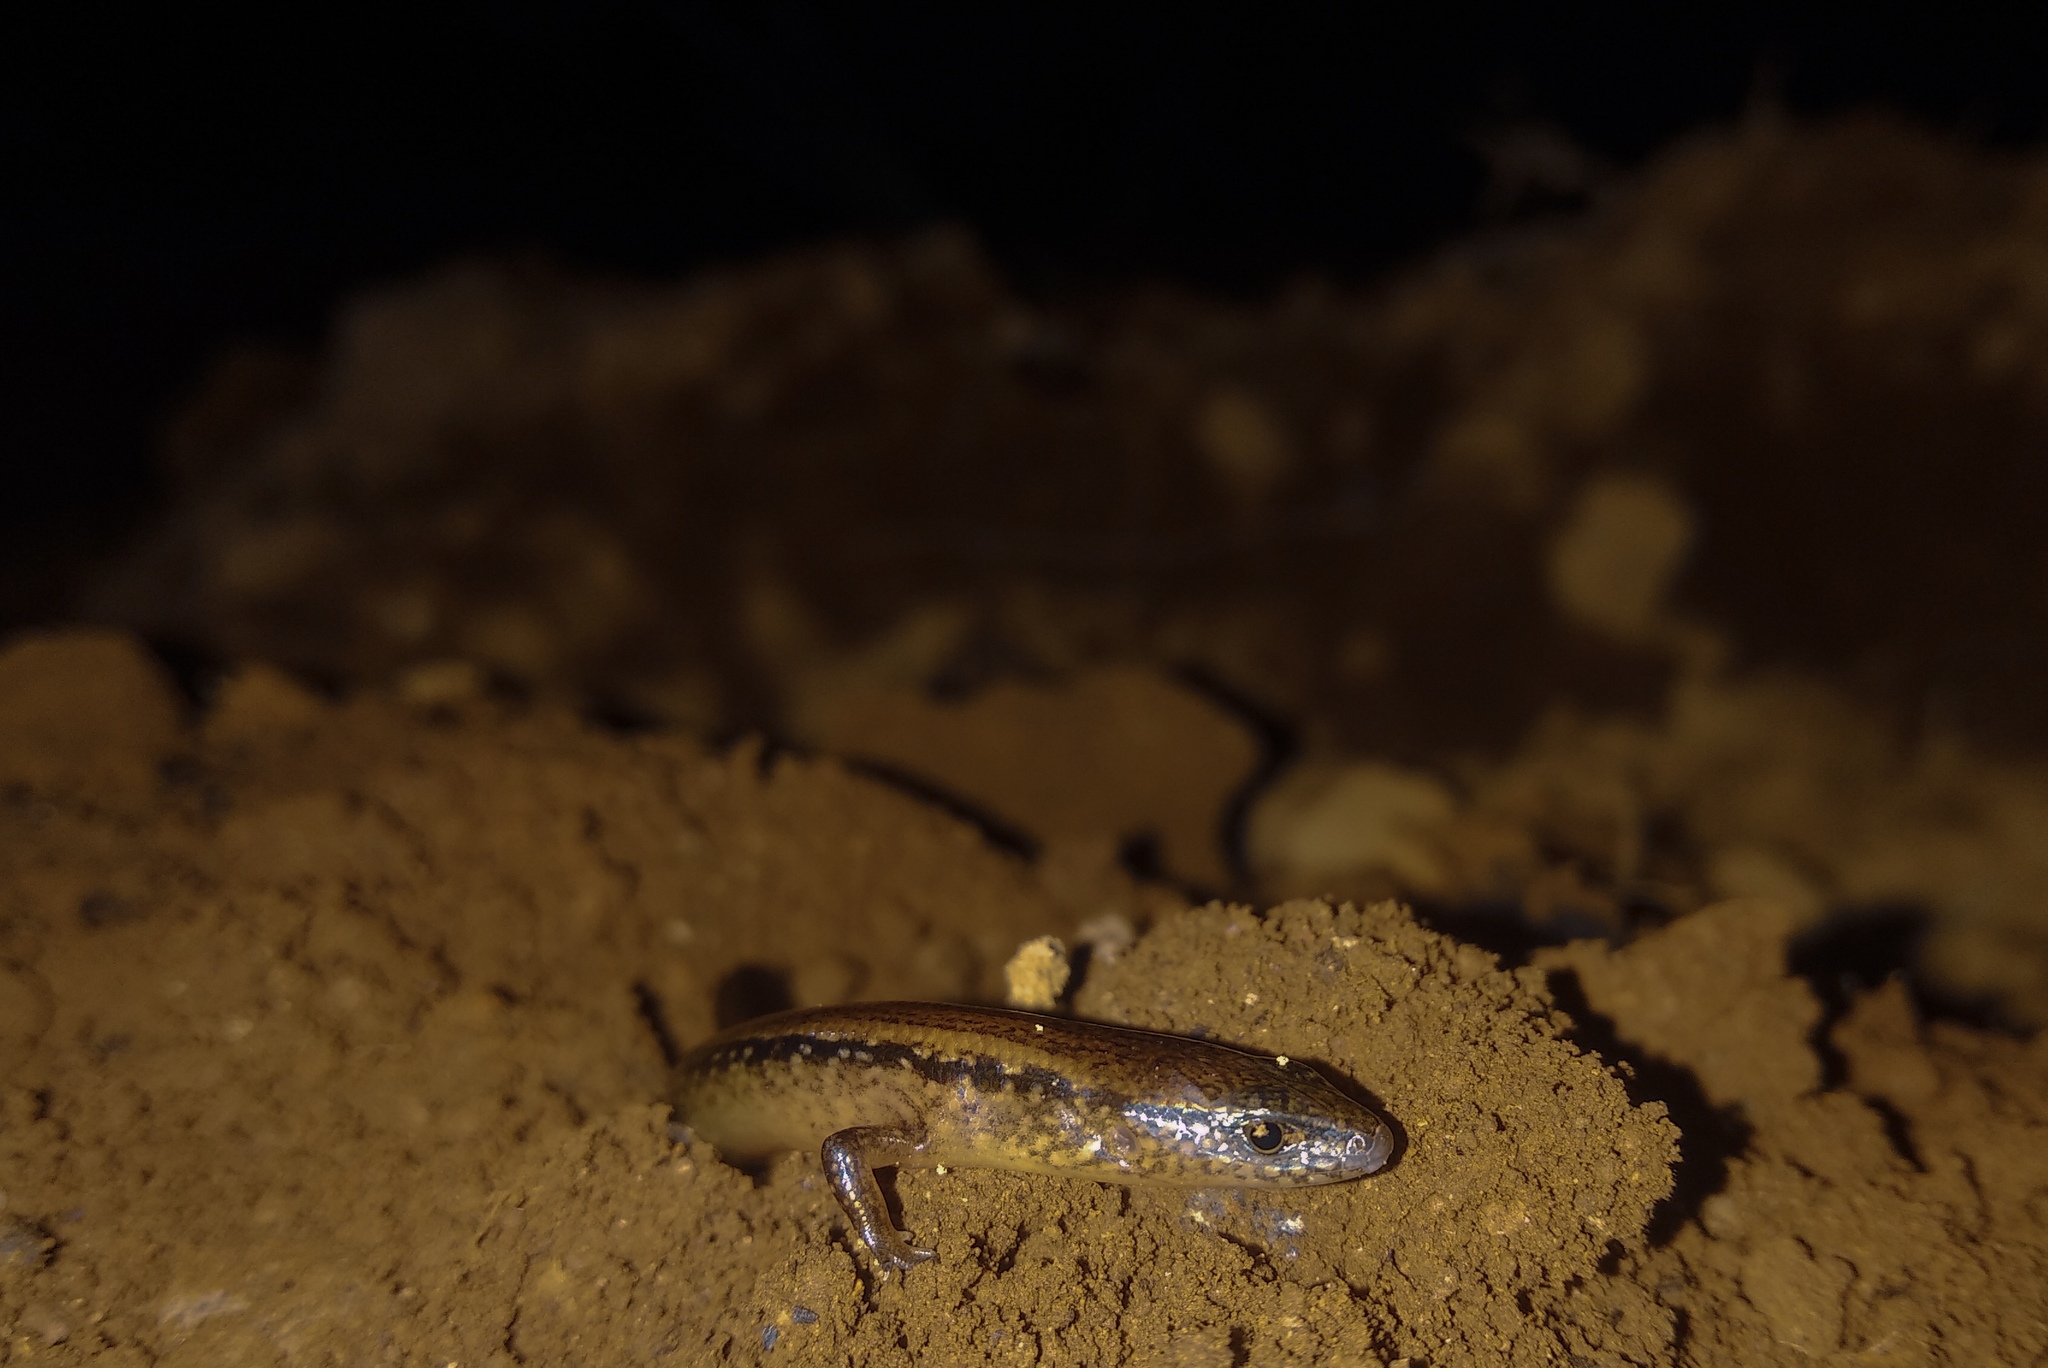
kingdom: Animalia
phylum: Chordata
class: Squamata
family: Scincidae
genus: Tytthoscincus
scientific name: Tytthoscincus temmincki
